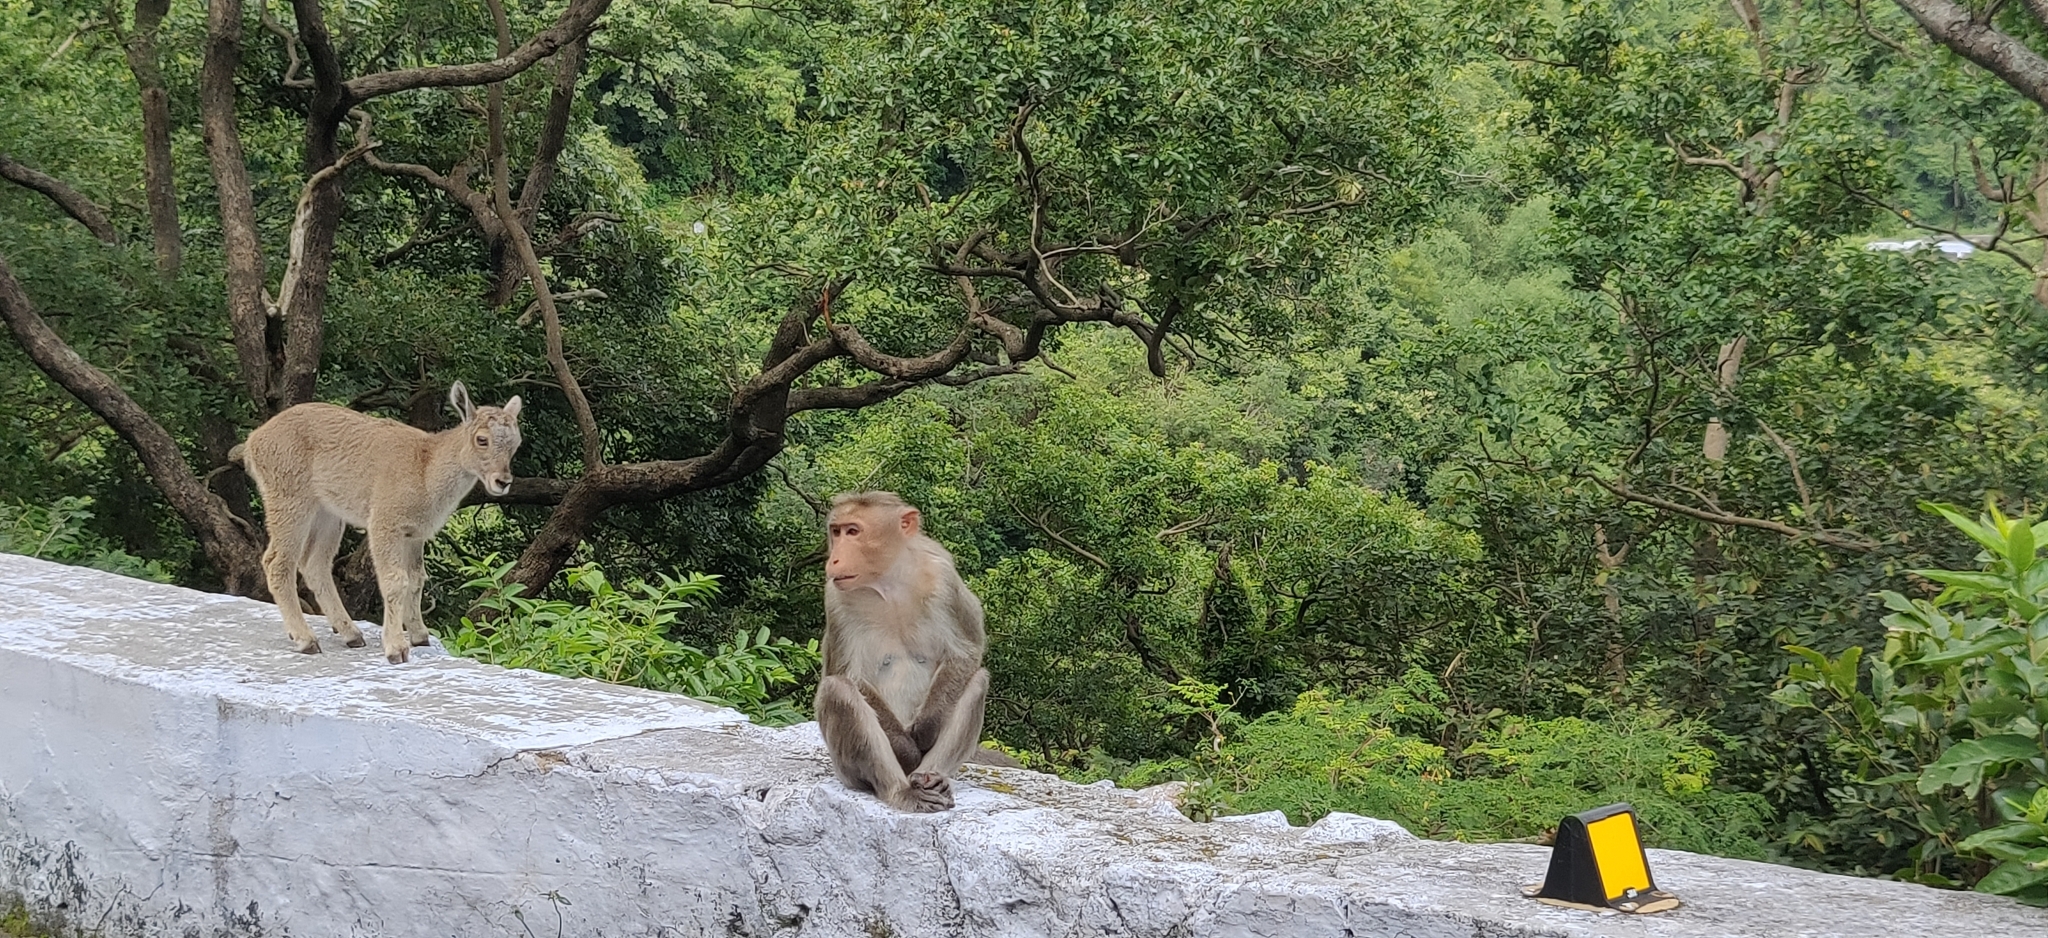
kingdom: Animalia
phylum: Chordata
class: Mammalia
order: Primates
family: Cercopithecidae
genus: Macaca
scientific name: Macaca radiata
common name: Bonnet macaque
